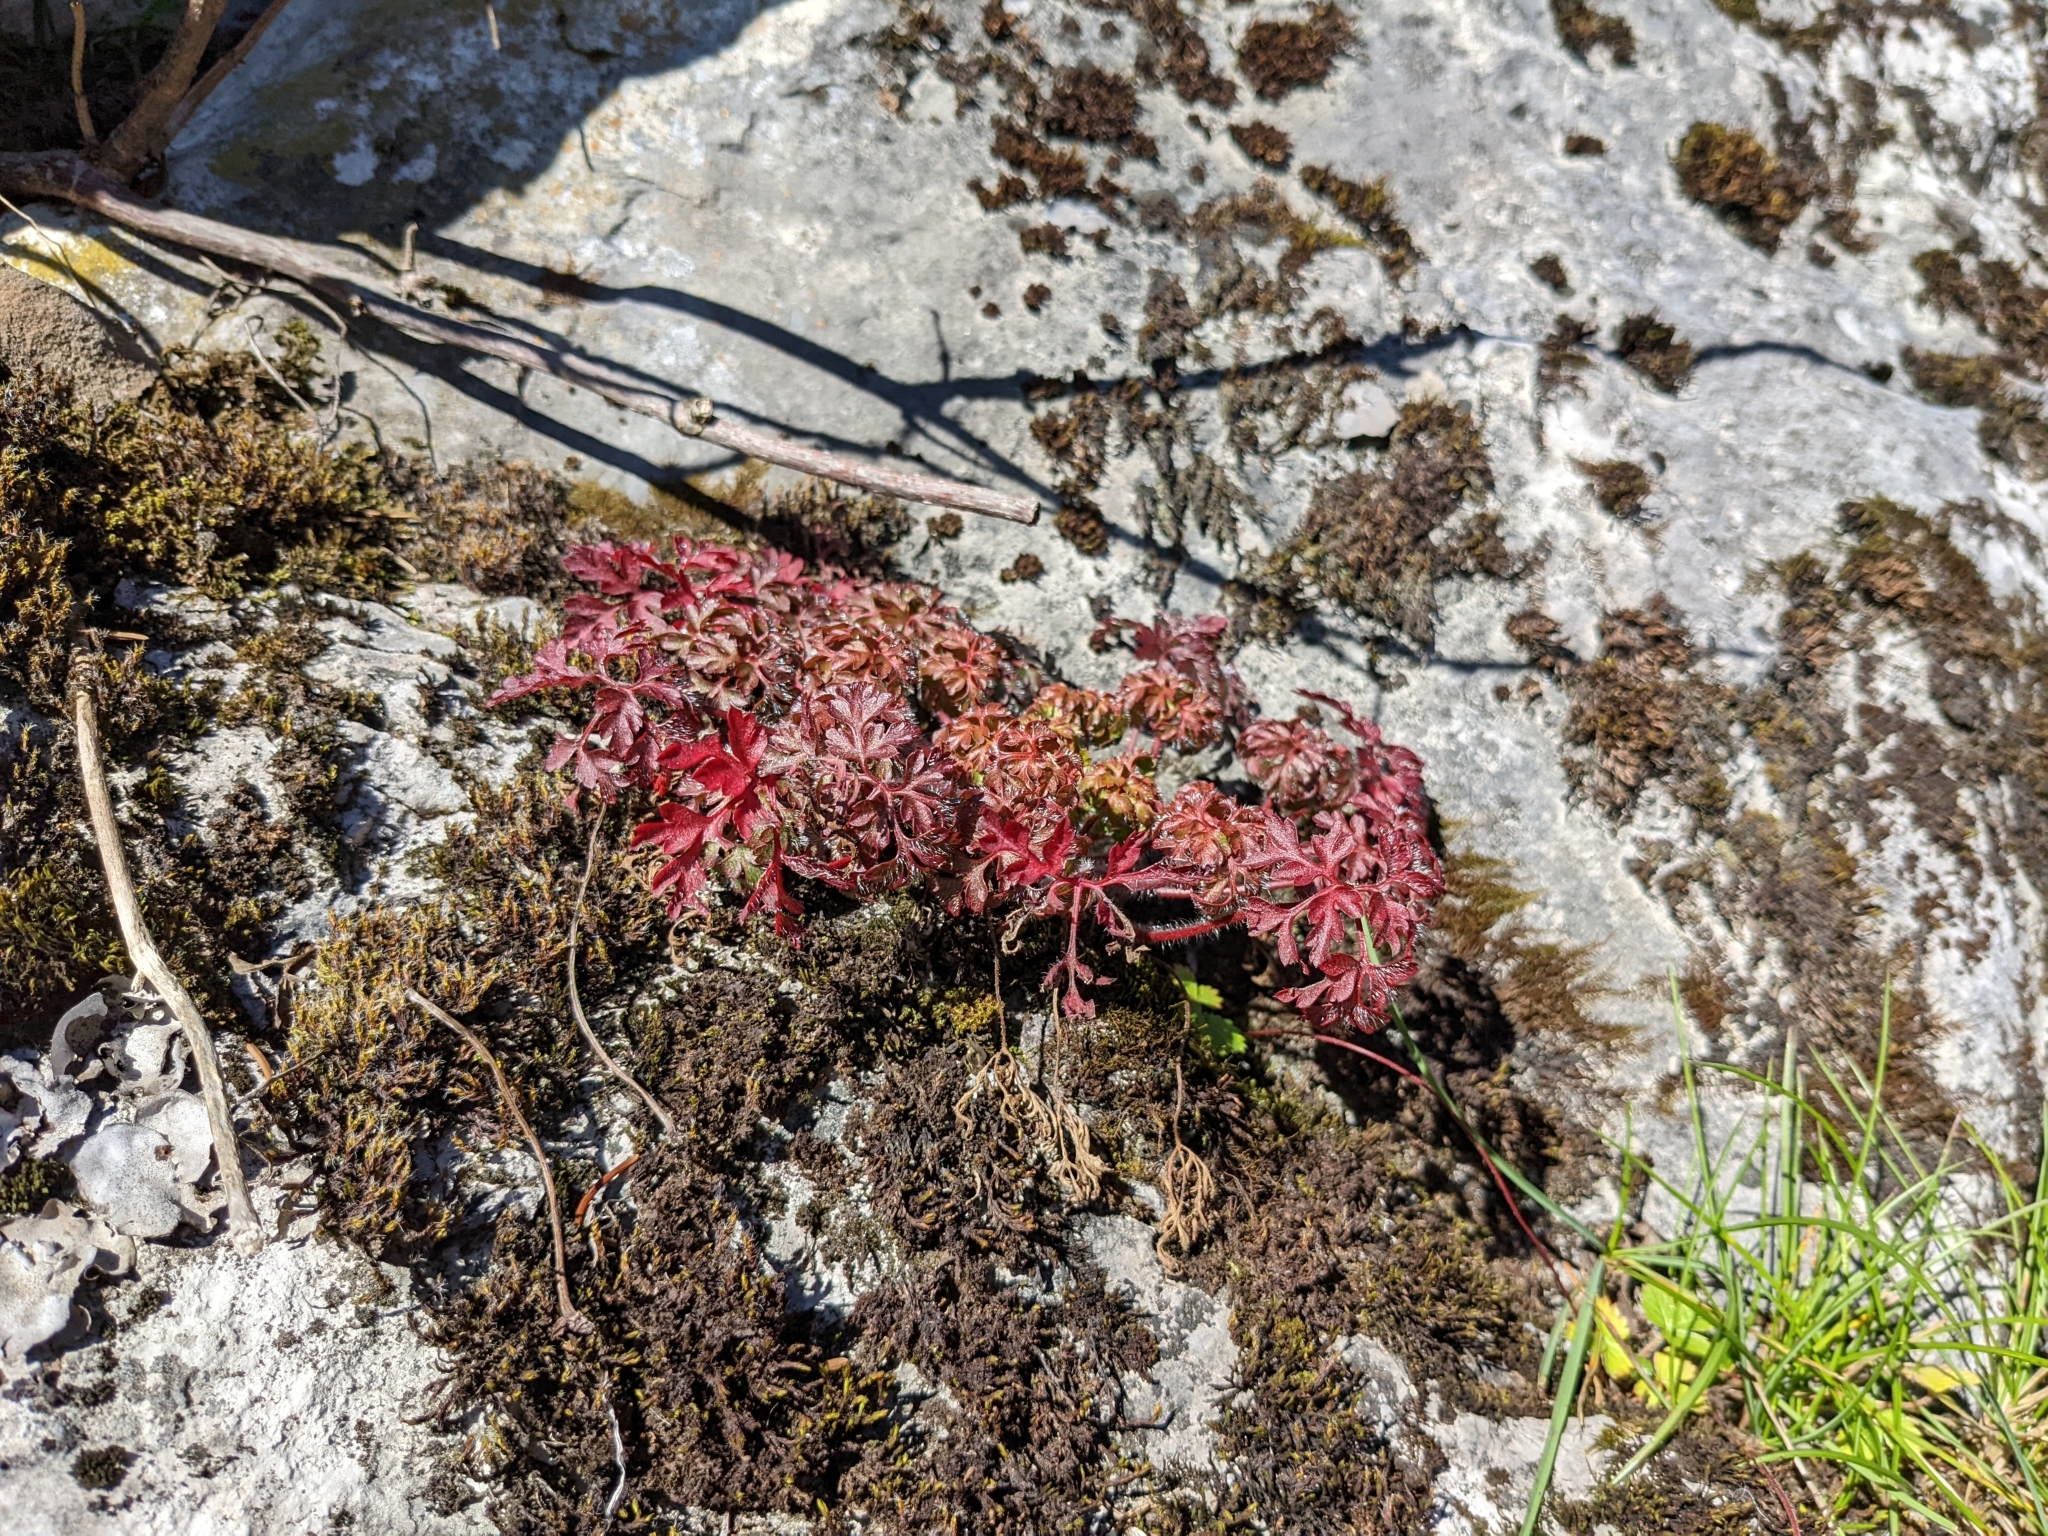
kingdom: Plantae
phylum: Tracheophyta
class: Magnoliopsida
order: Geraniales
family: Geraniaceae
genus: Geranium
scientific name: Geranium robertianum
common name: Herb-robert
